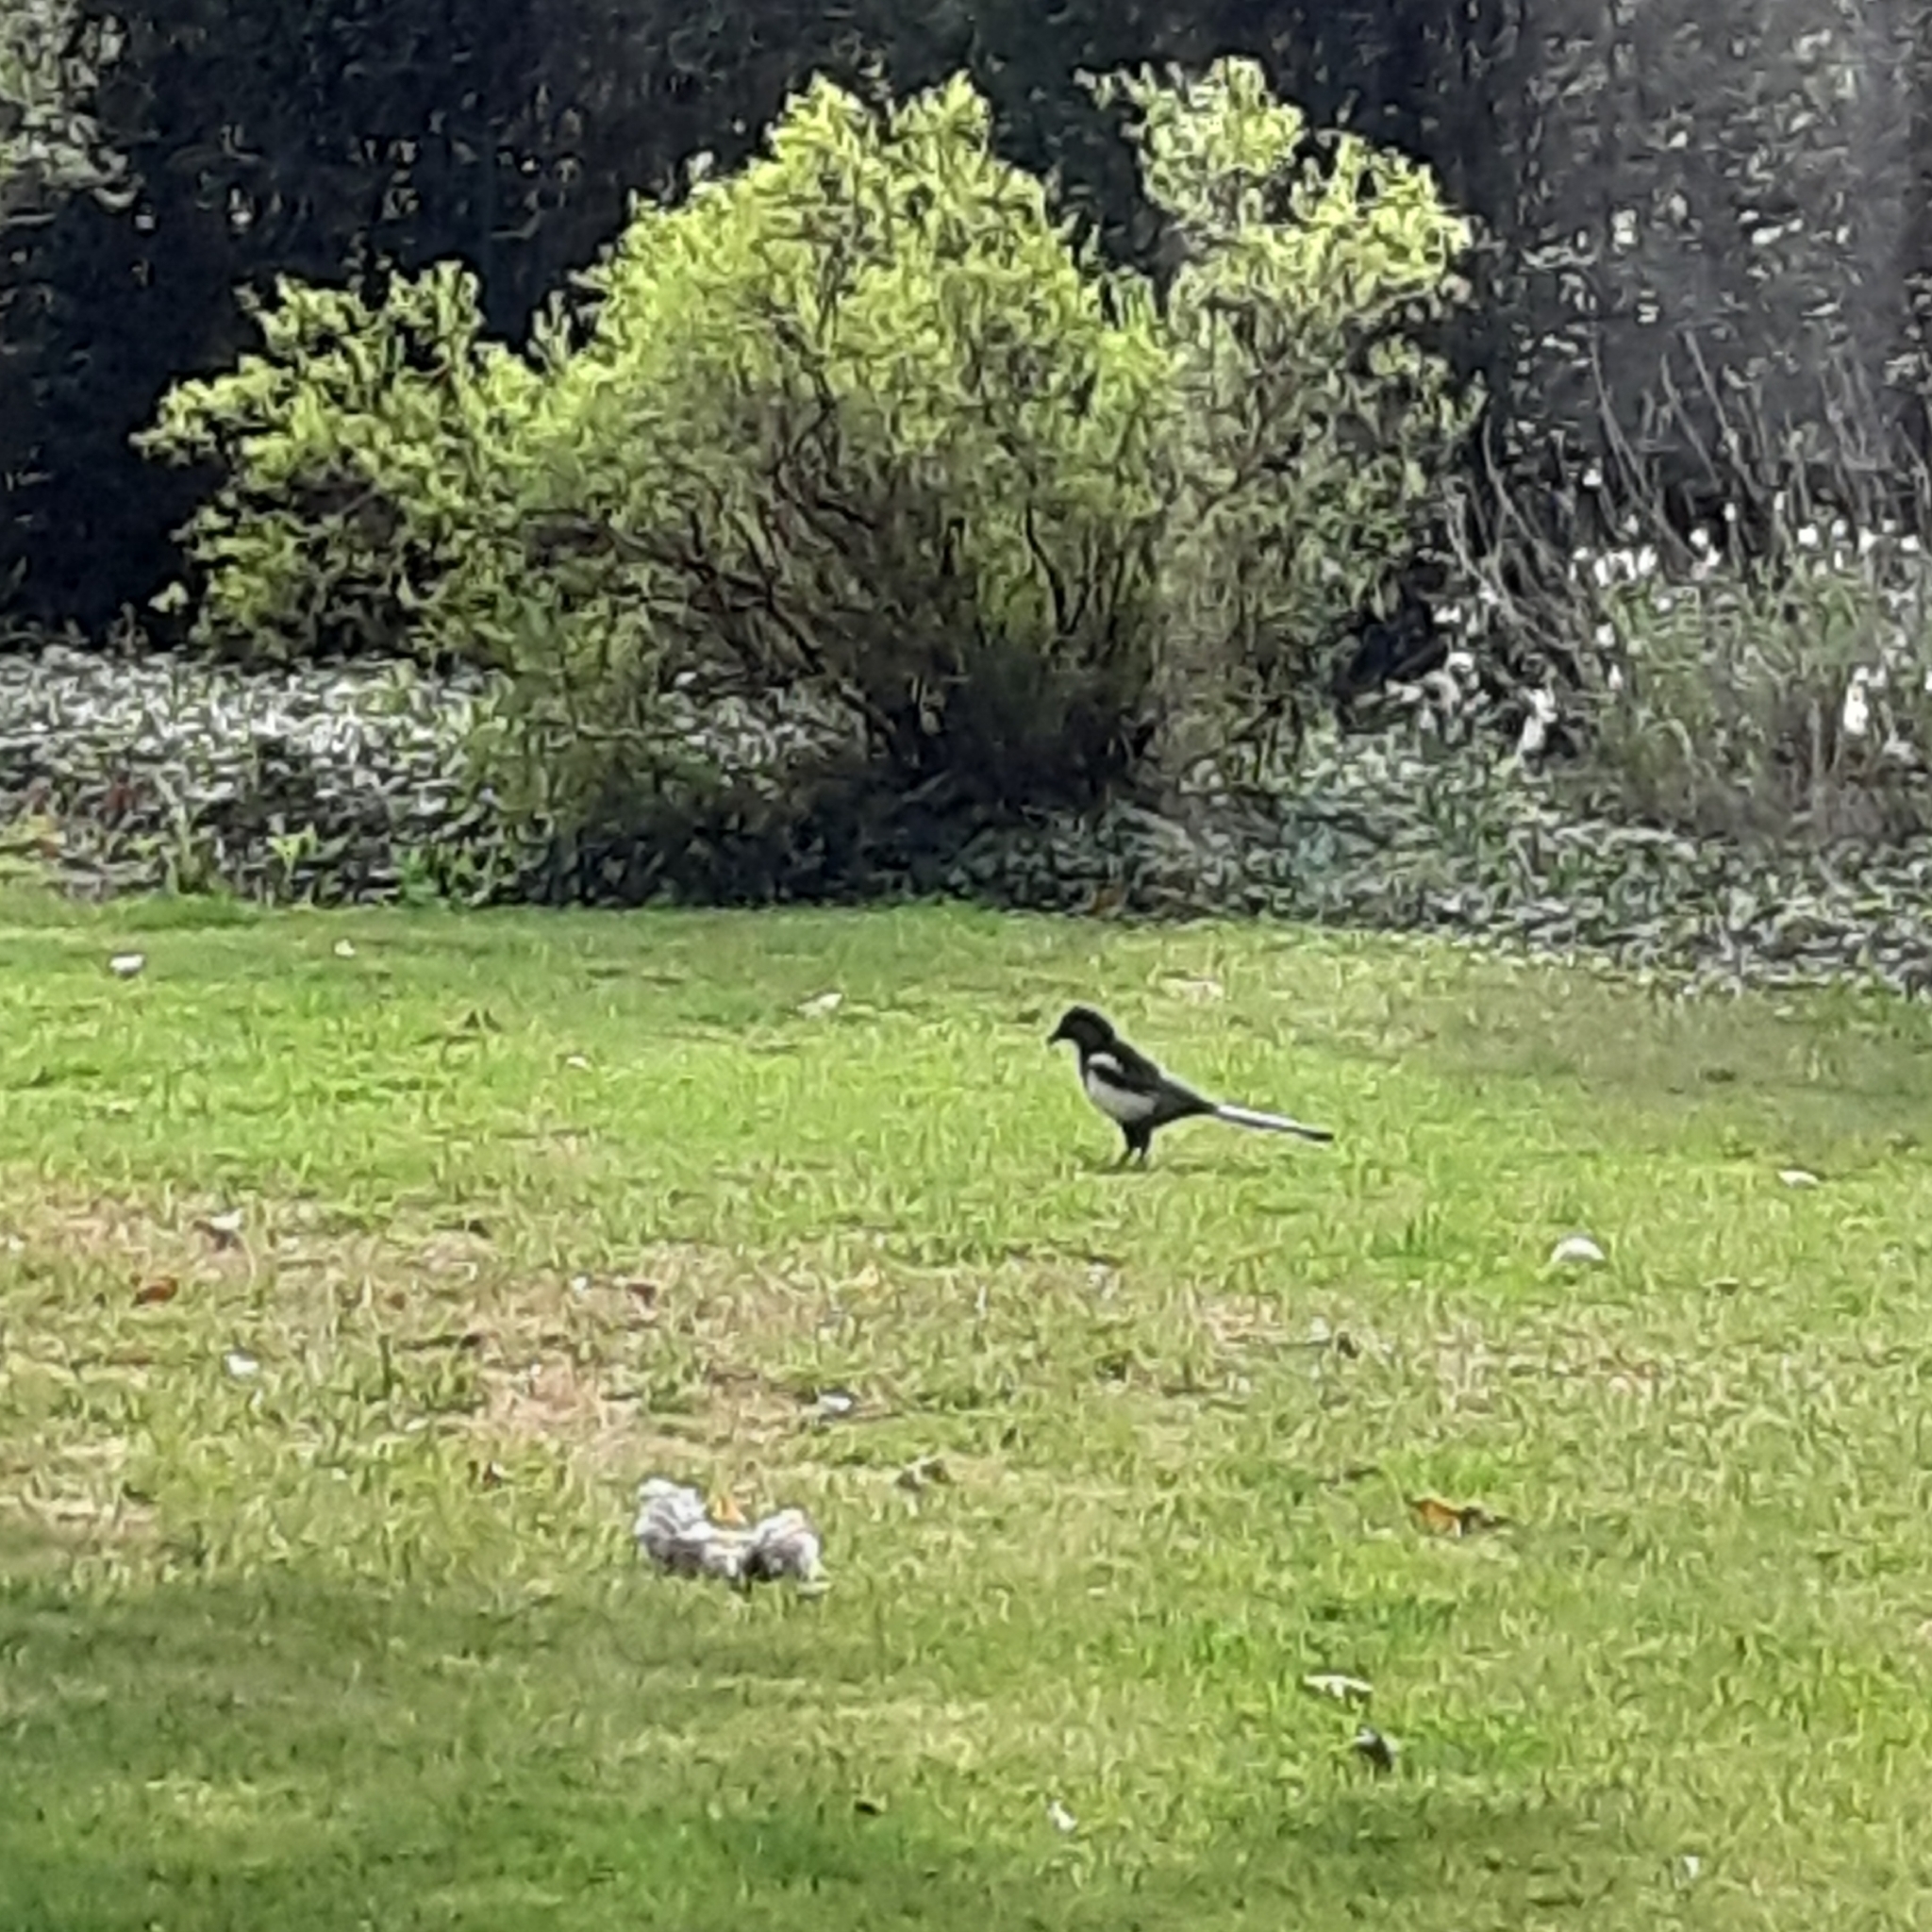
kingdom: Animalia
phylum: Chordata
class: Aves
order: Passeriformes
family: Corvidae
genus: Pica
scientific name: Pica pica
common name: Eurasian magpie
